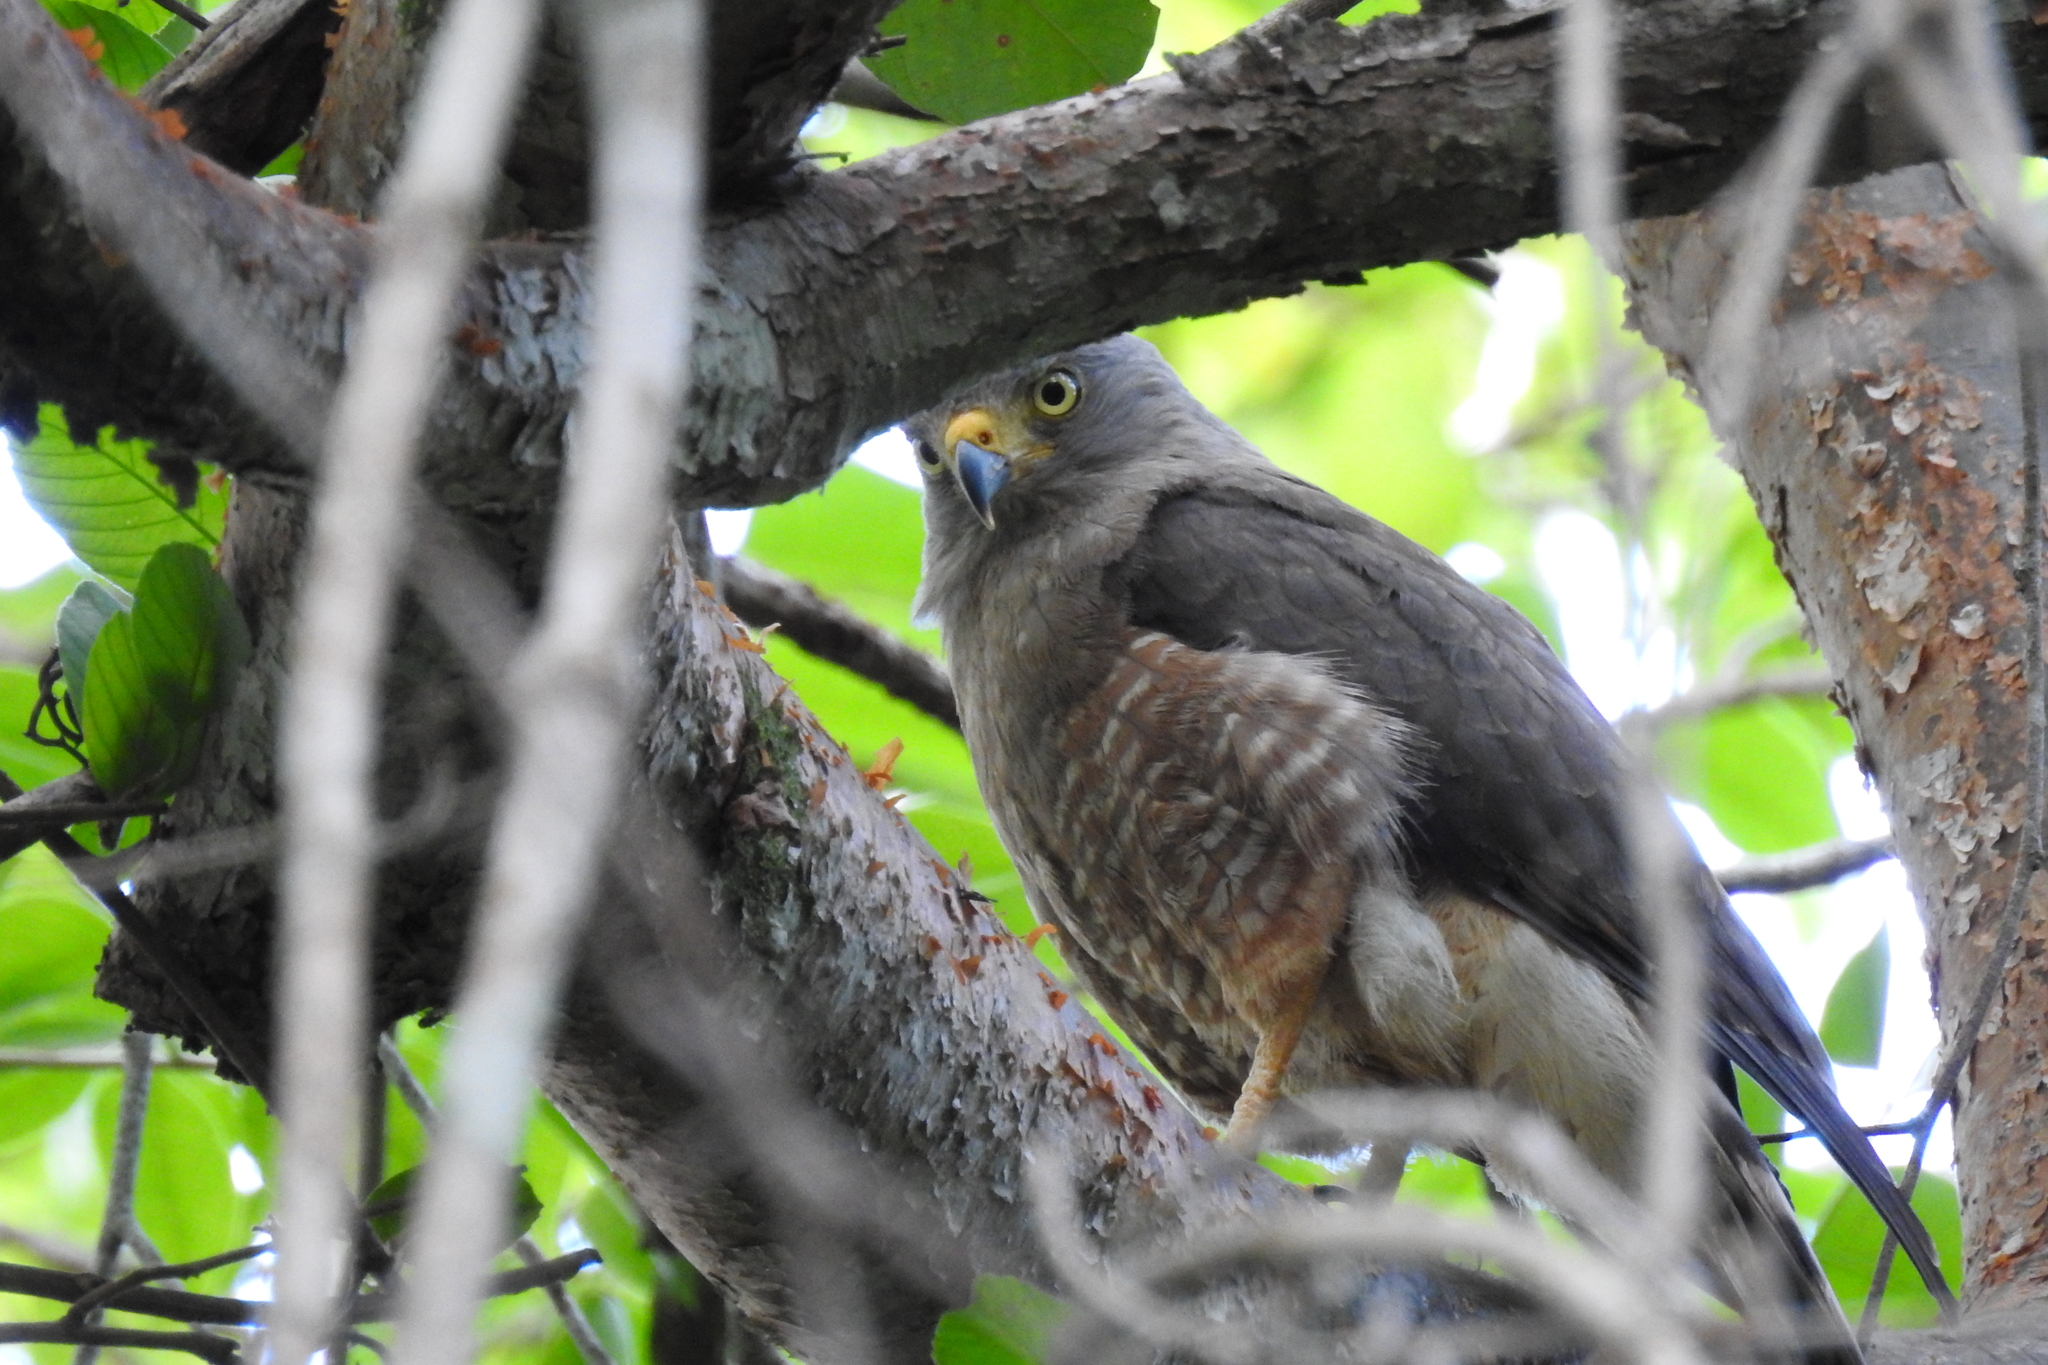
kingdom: Animalia
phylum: Chordata
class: Aves
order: Accipitriformes
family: Accipitridae
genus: Rupornis
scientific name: Rupornis magnirostris
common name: Roadside hawk
